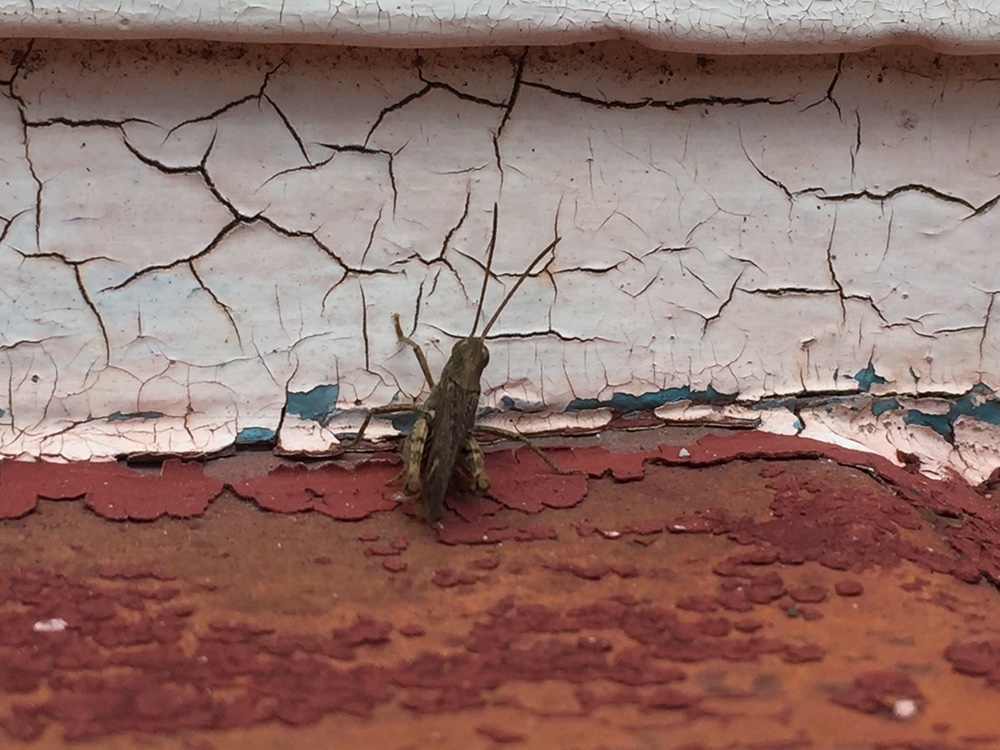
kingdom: Animalia
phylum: Arthropoda
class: Insecta
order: Orthoptera
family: Acrididae
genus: Chorthippus
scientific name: Chorthippus brunneus
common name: Field grasshopper
